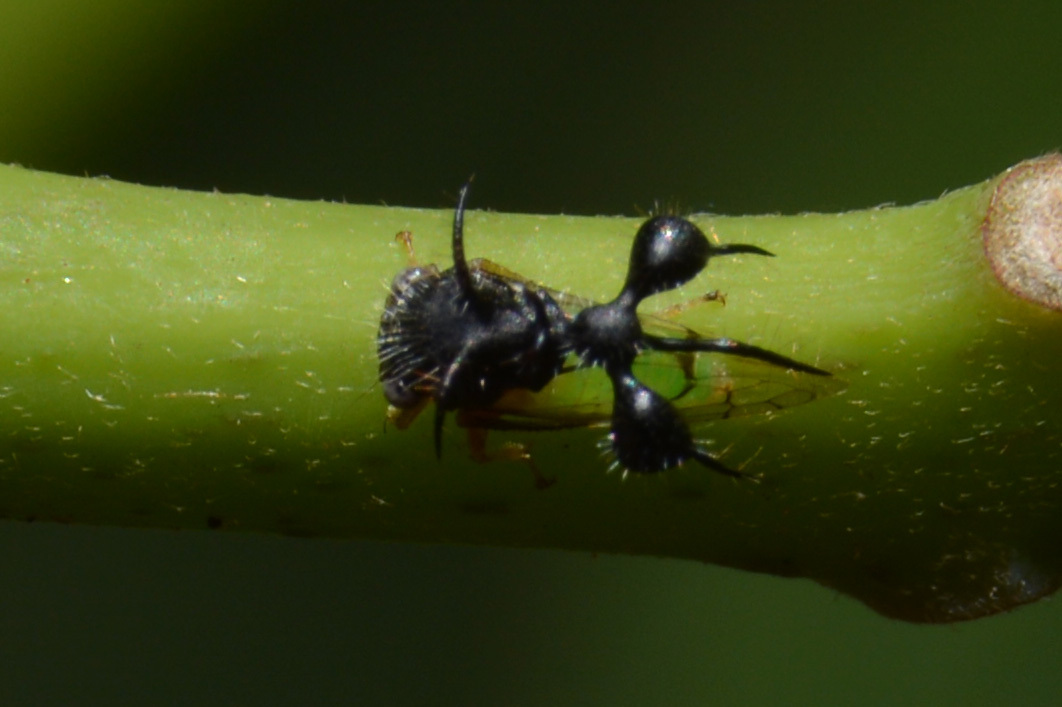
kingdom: Animalia
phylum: Arthropoda
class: Insecta
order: Hemiptera
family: Membracidae
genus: Cyphonia
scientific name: Cyphonia clavata
